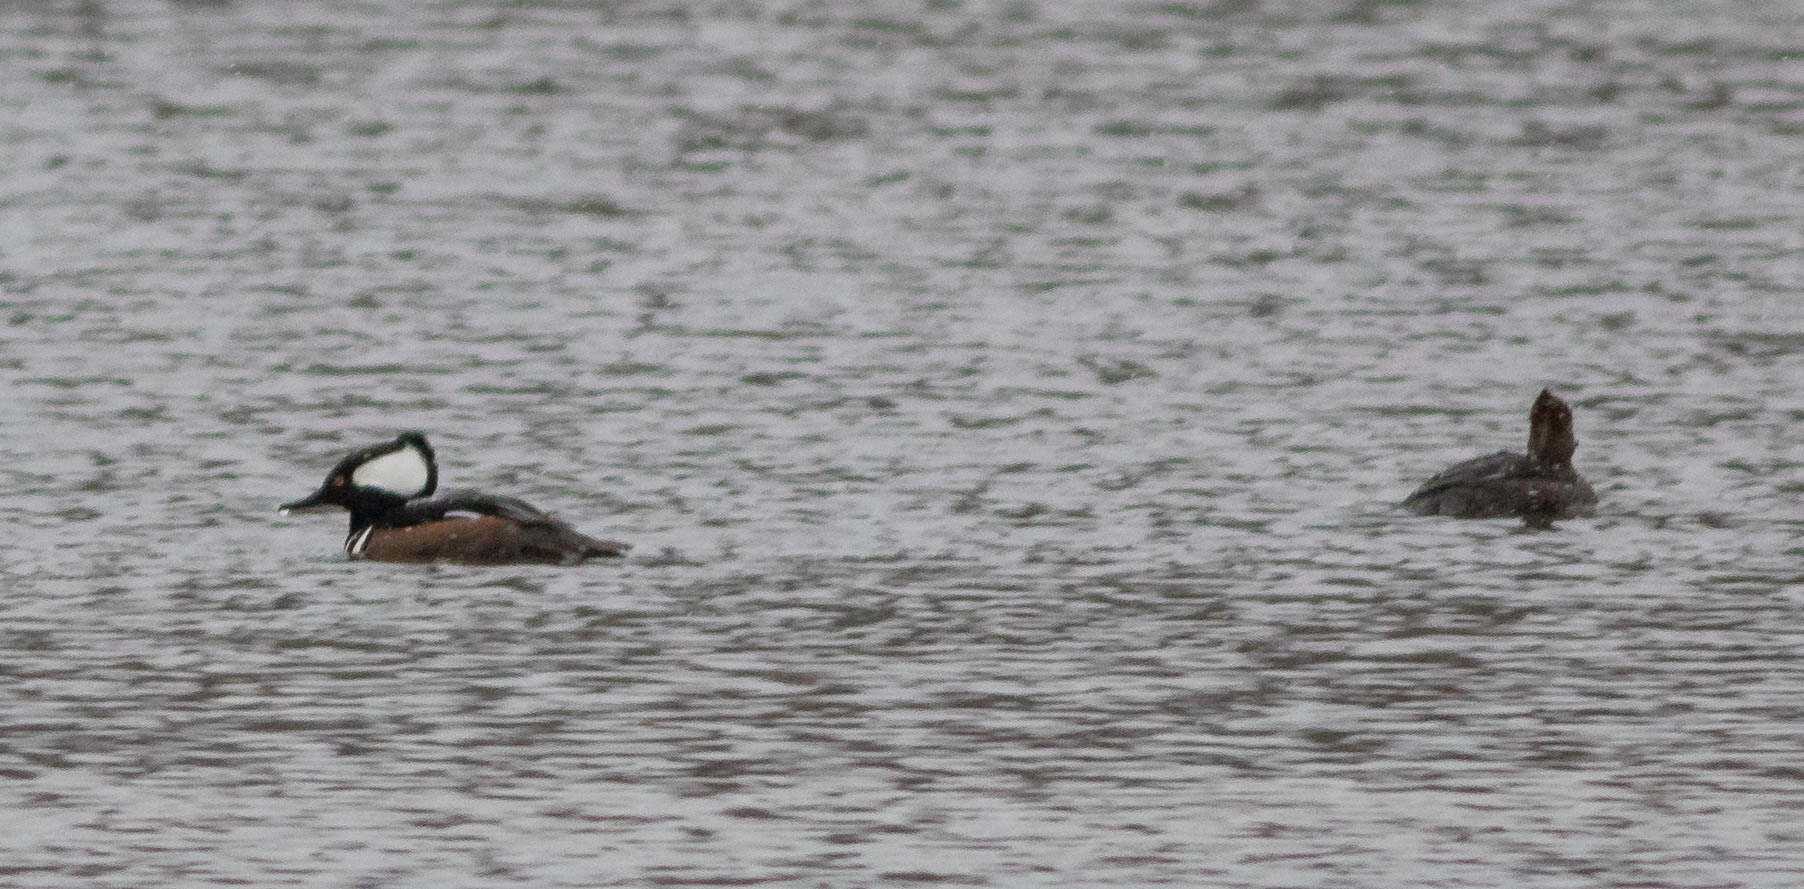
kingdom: Animalia
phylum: Chordata
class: Aves
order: Anseriformes
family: Anatidae
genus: Lophodytes
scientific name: Lophodytes cucullatus
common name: Hooded merganser
